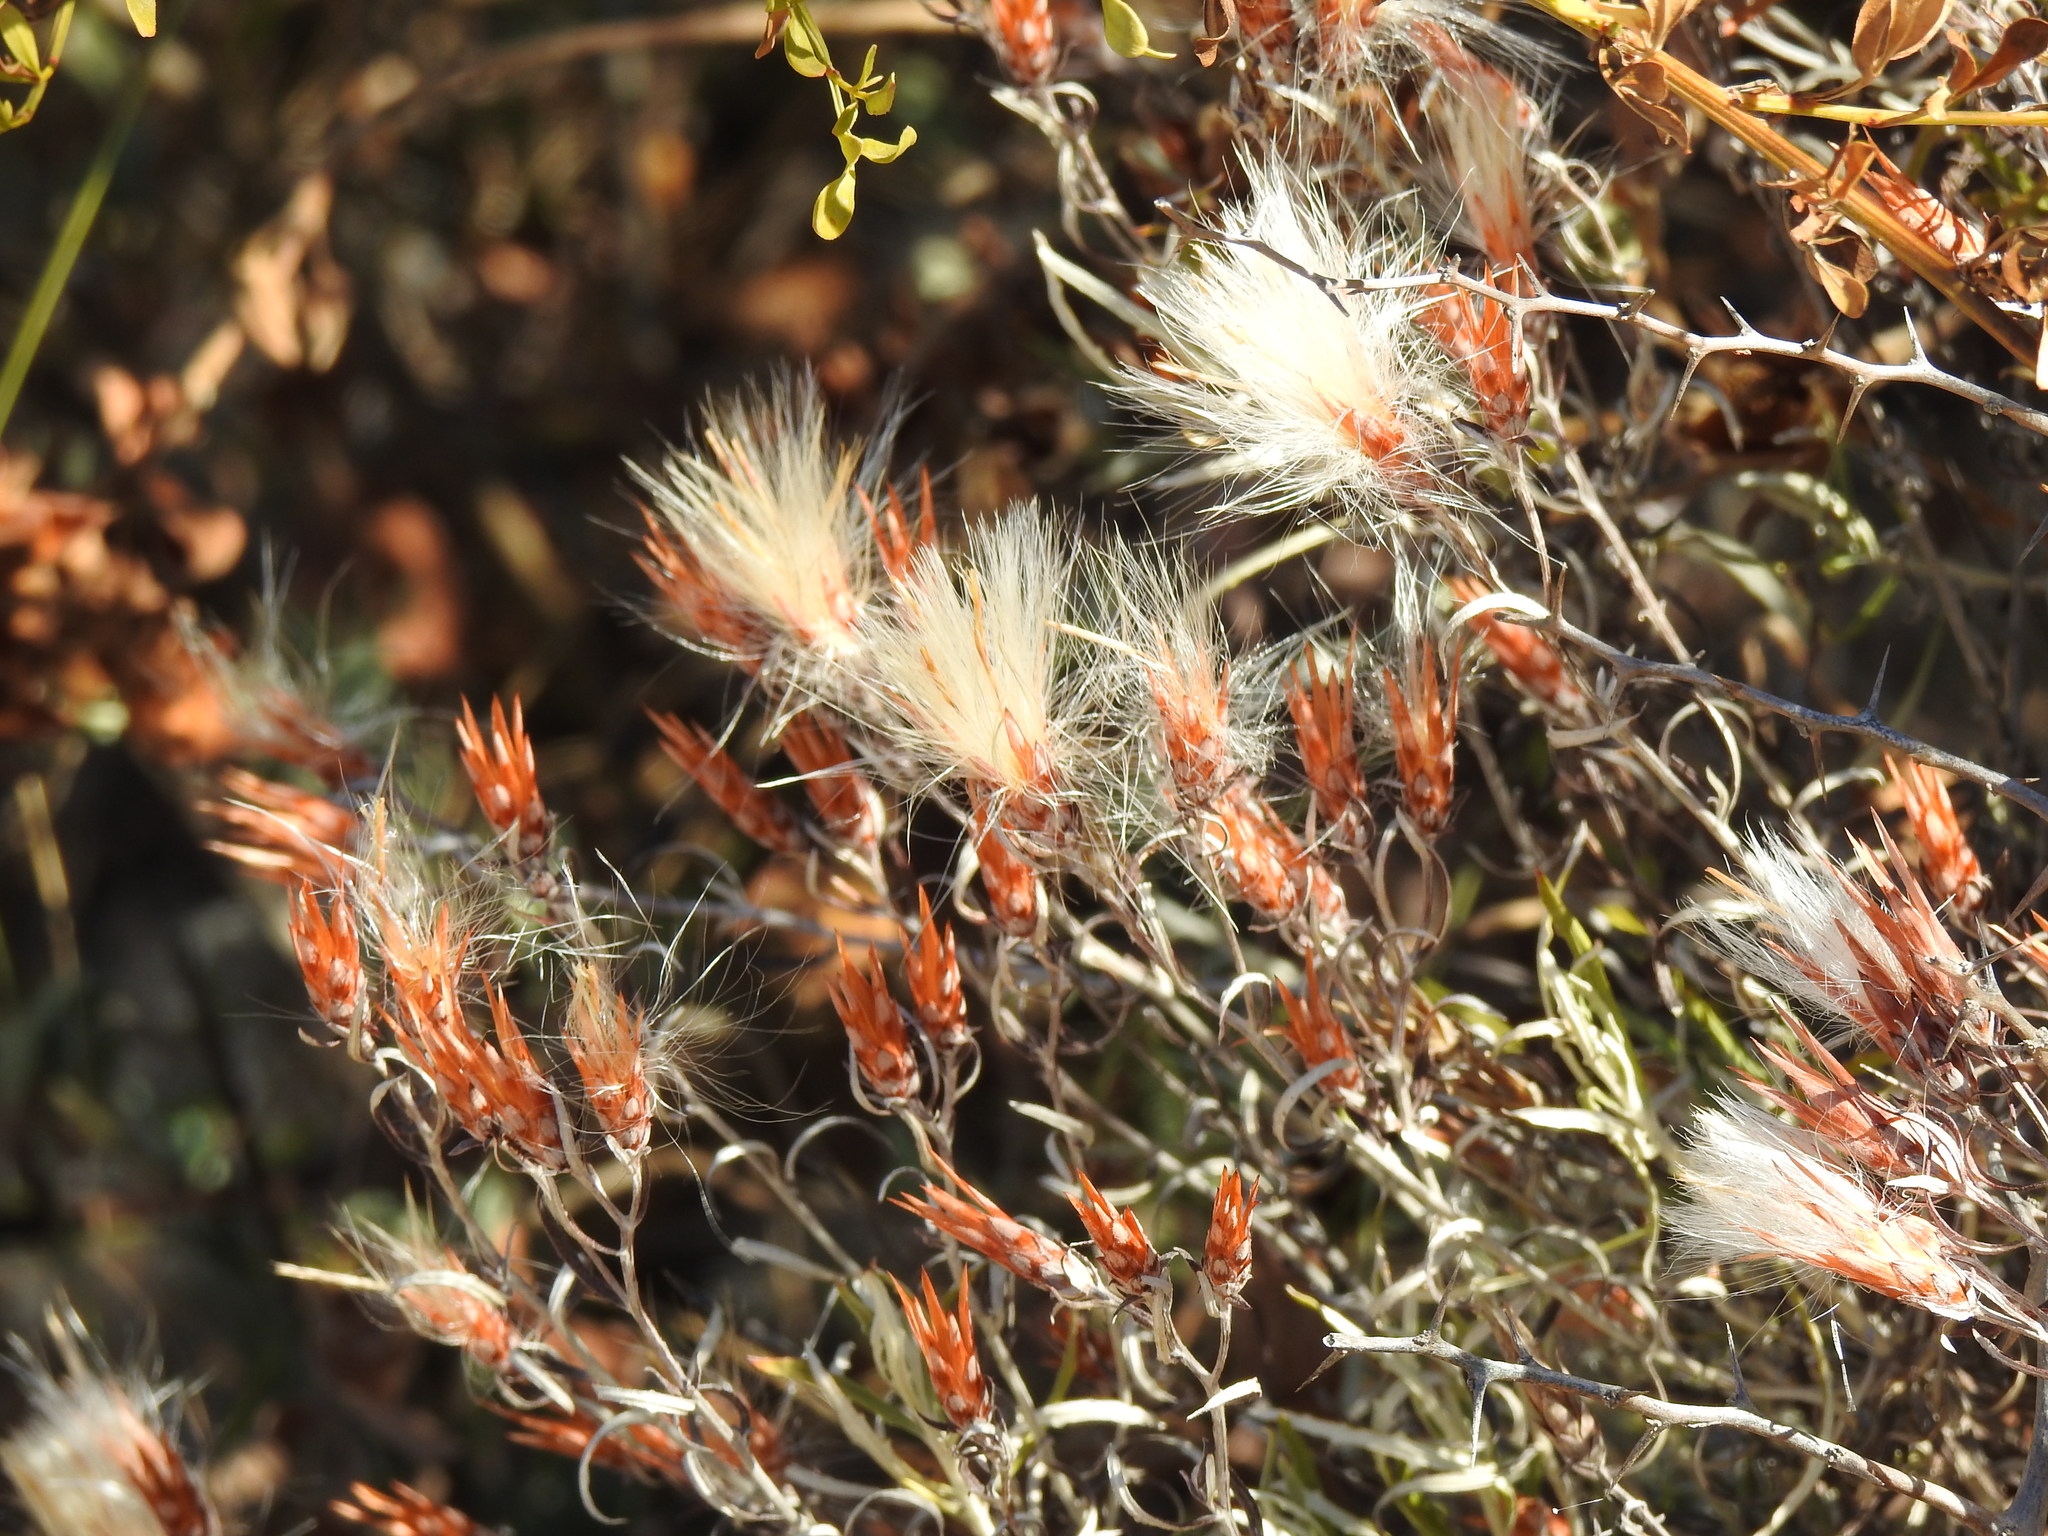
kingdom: Plantae
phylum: Tracheophyta
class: Magnoliopsida
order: Asterales
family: Asteraceae
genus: Staehelina
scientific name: Staehelina dubia
